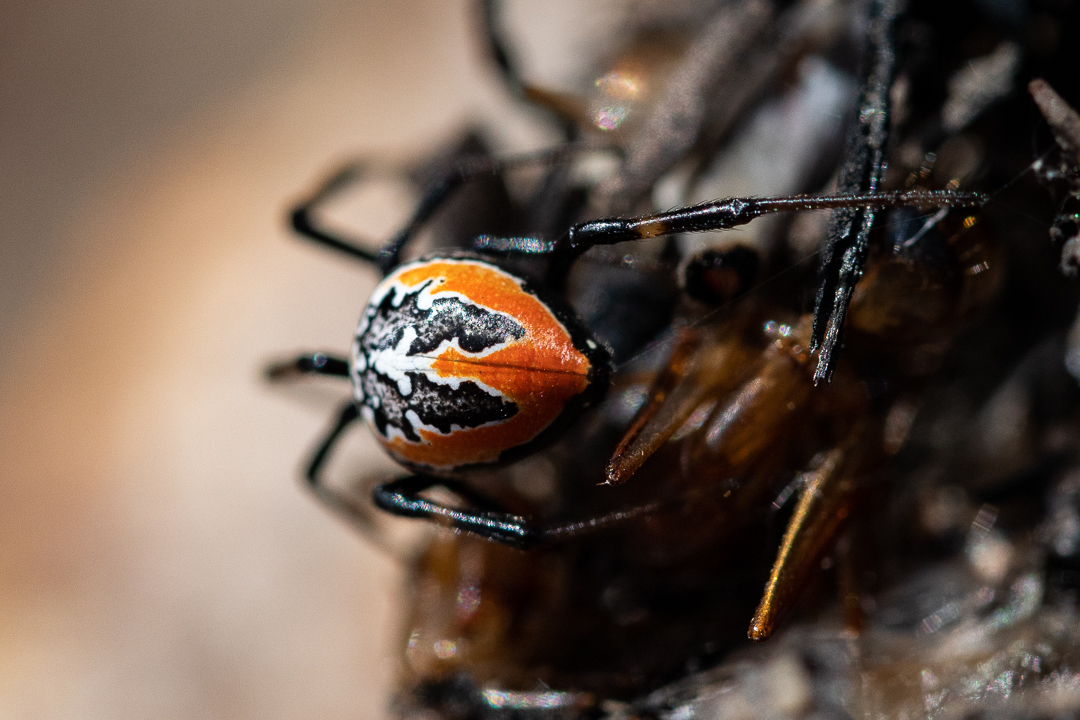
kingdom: Animalia
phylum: Arthropoda
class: Arachnida
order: Araneae
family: Theridiidae
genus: Latrodectus
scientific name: Latrodectus indistinctus
